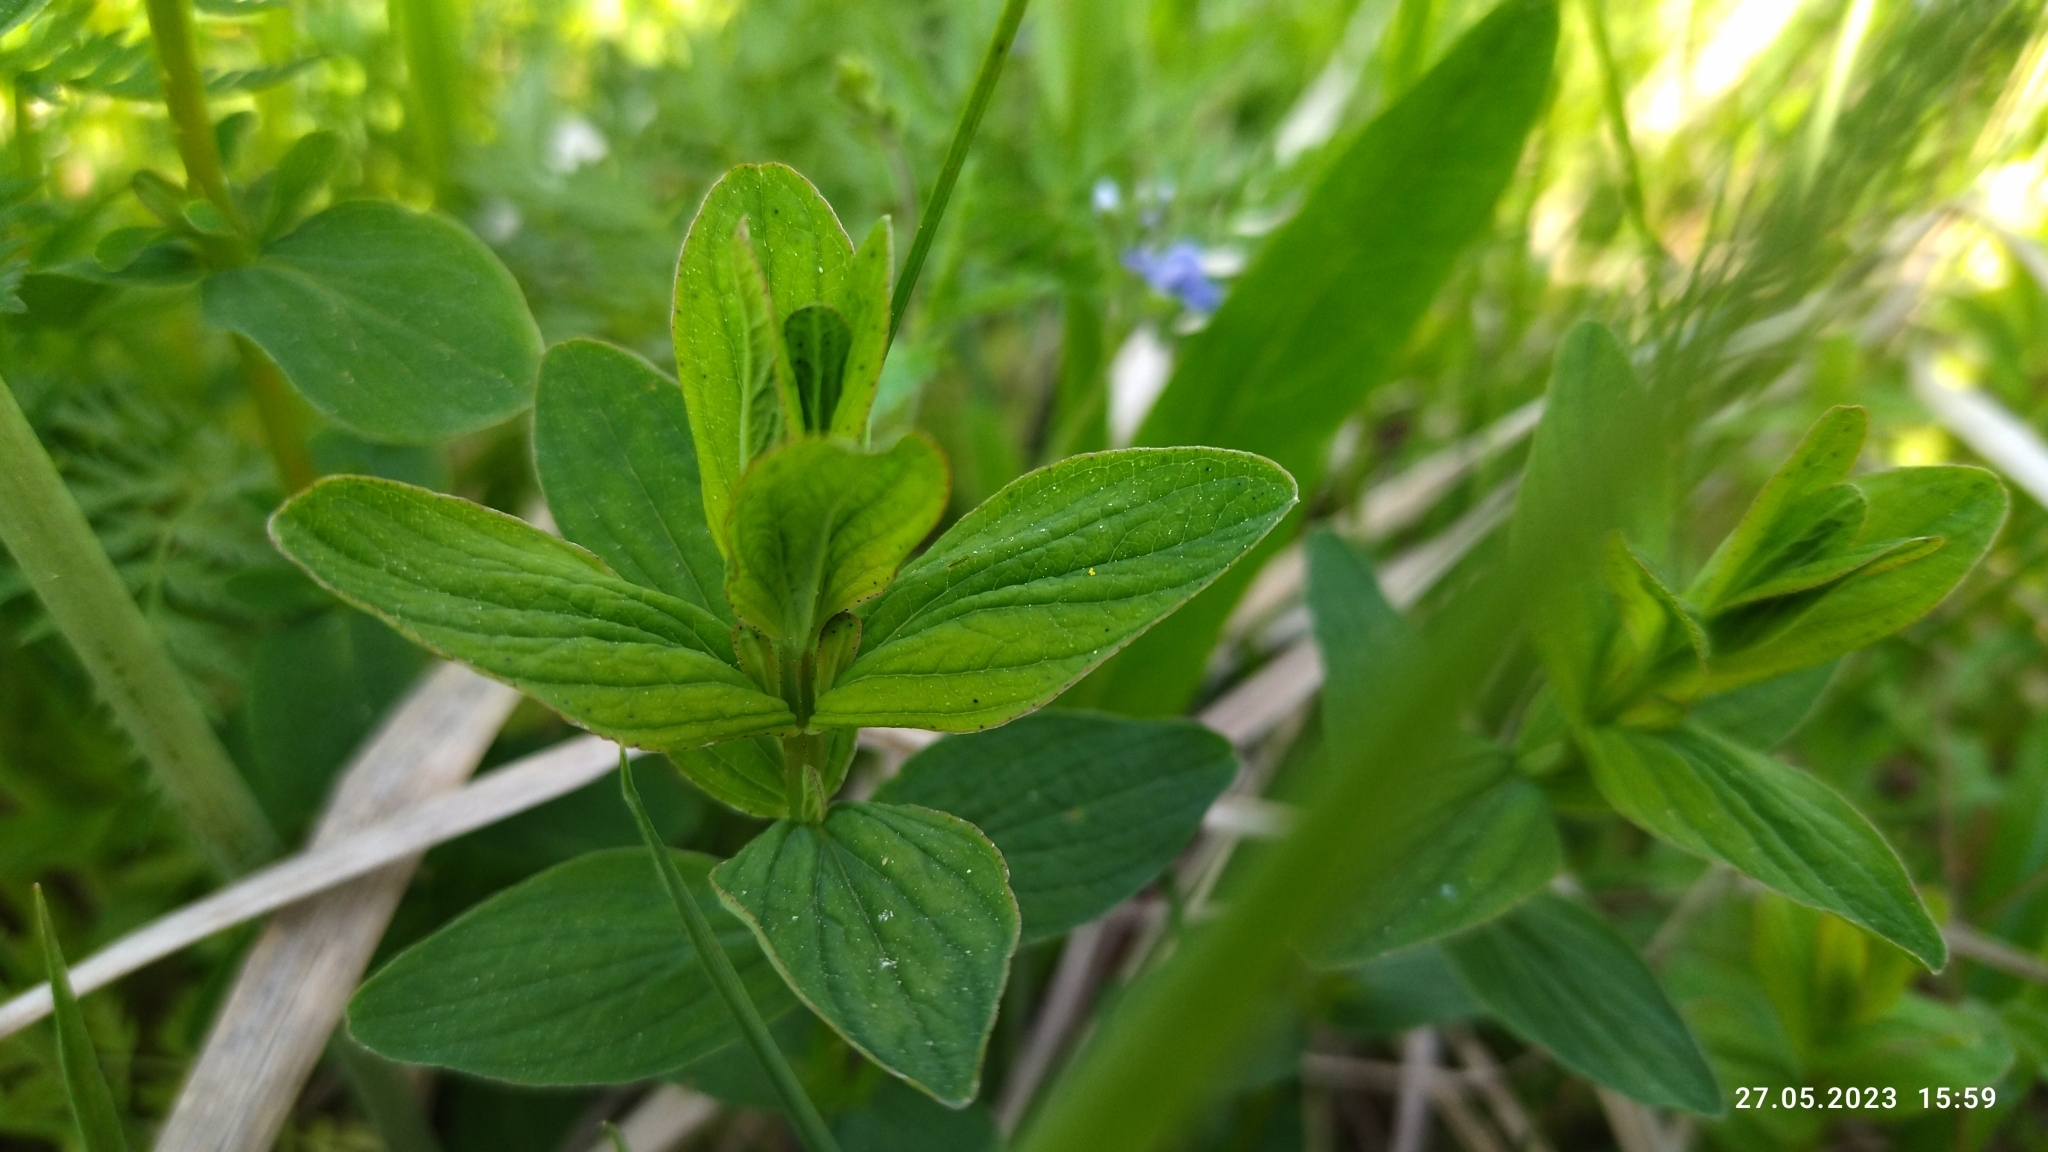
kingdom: Plantae
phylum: Tracheophyta
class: Magnoliopsida
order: Malpighiales
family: Hypericaceae
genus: Hypericum
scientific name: Hypericum maculatum
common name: Imperforate st. john's-wort
